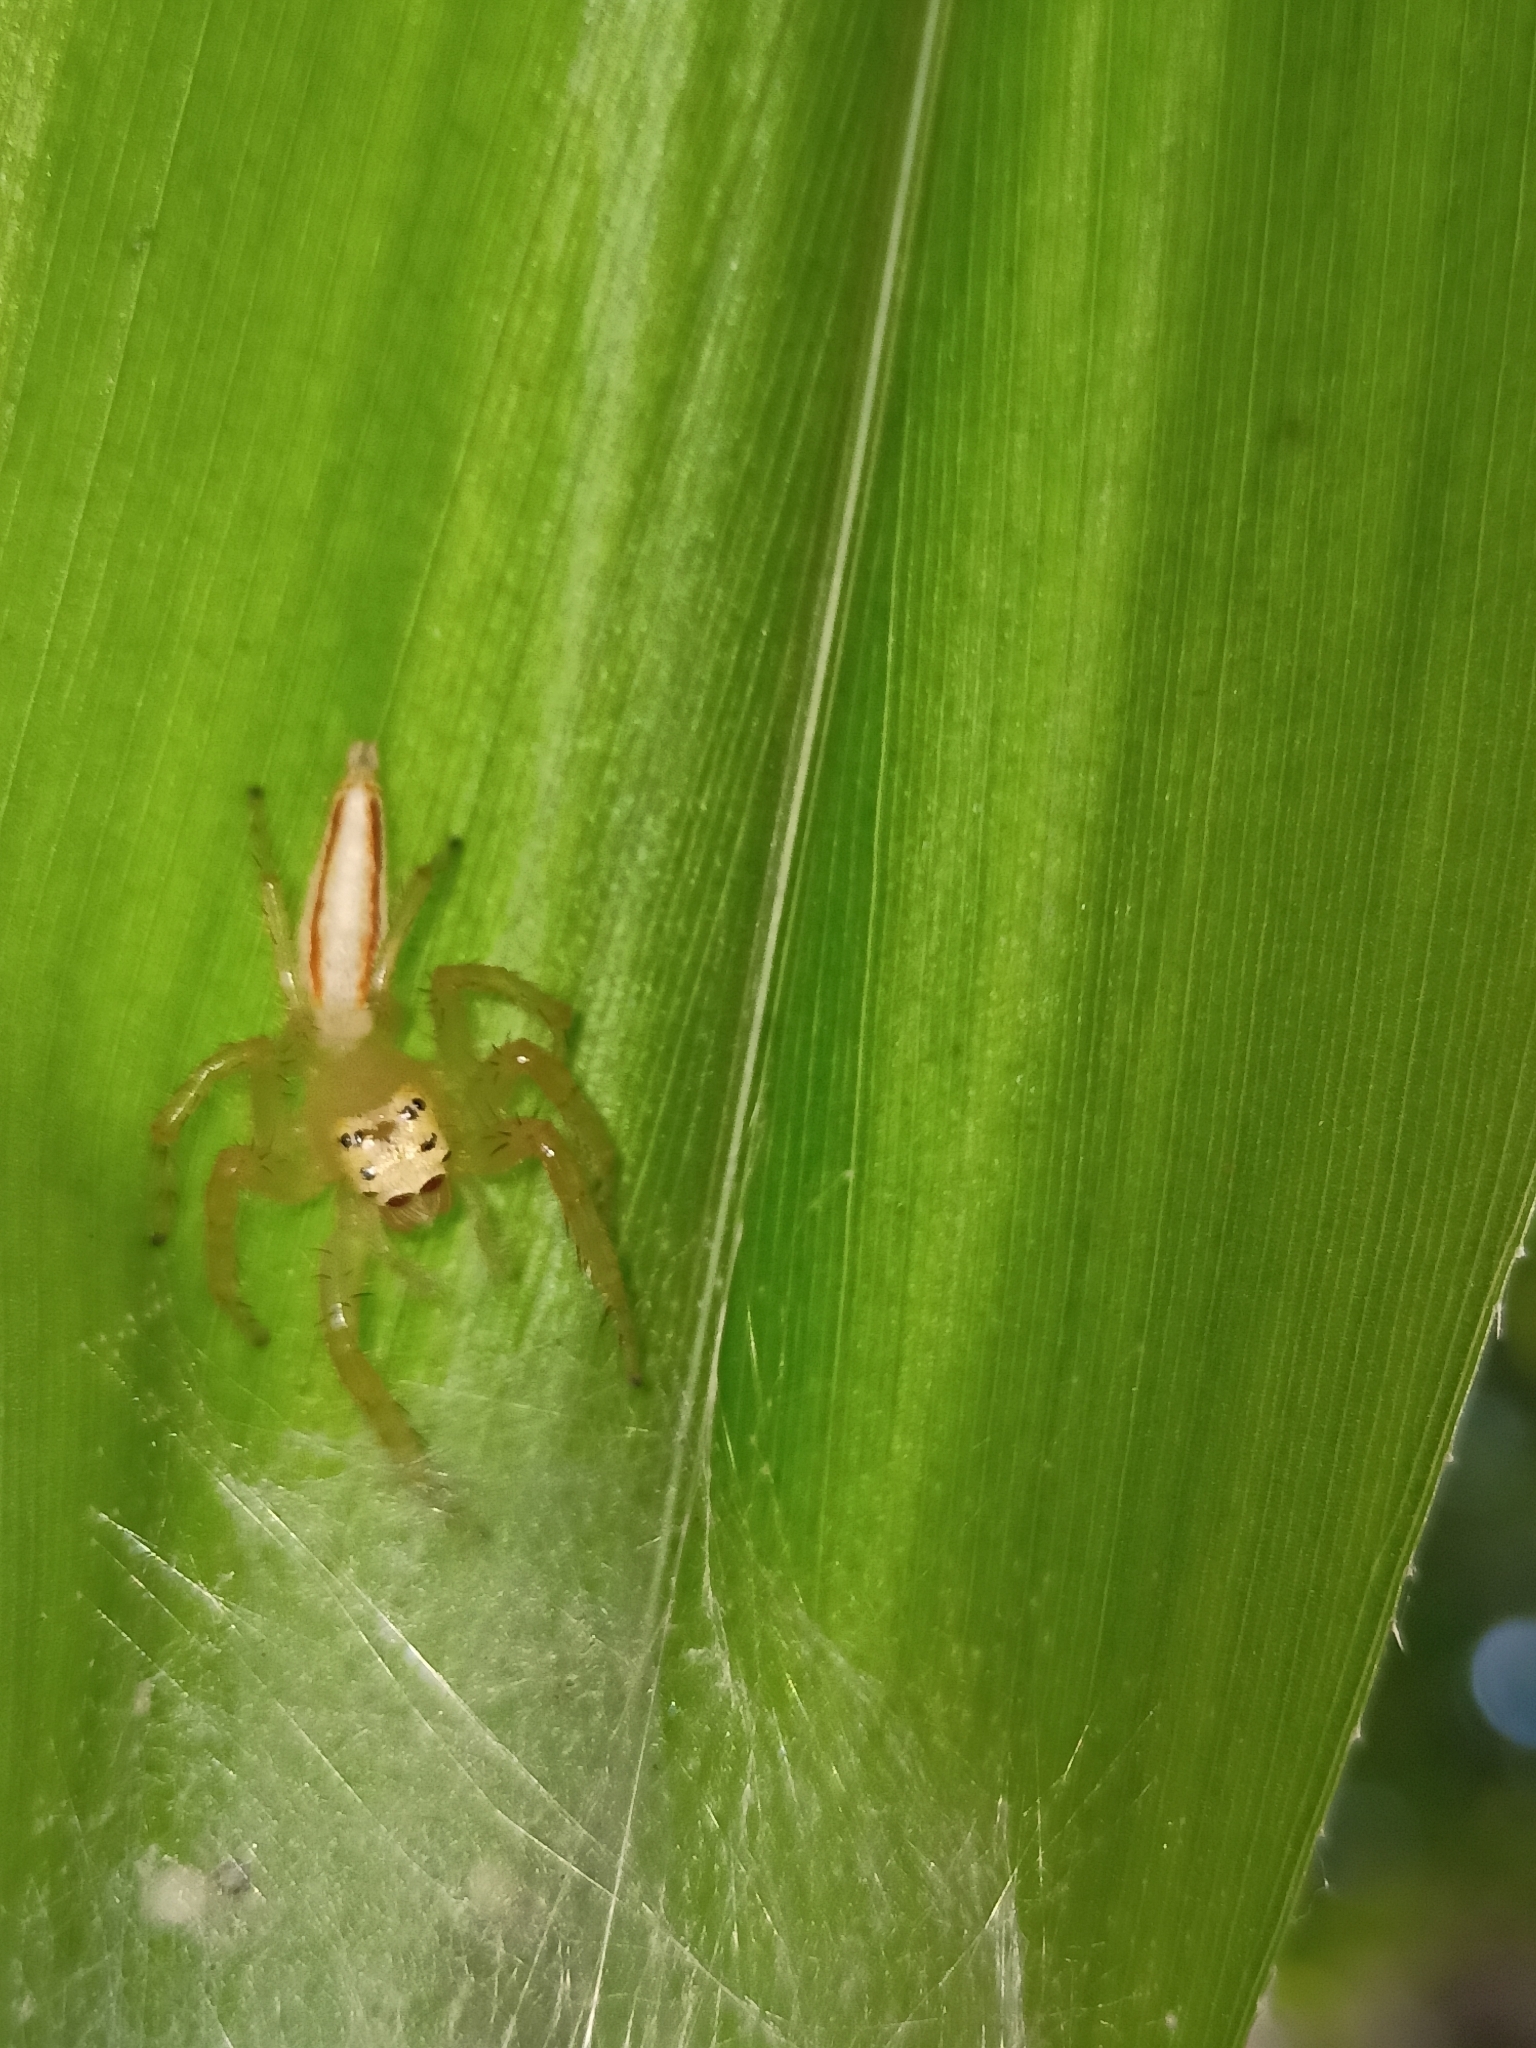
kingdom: Animalia
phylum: Arthropoda
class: Arachnida
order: Araneae
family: Salticidae
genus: Telamonia
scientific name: Telamonia dimidiata
